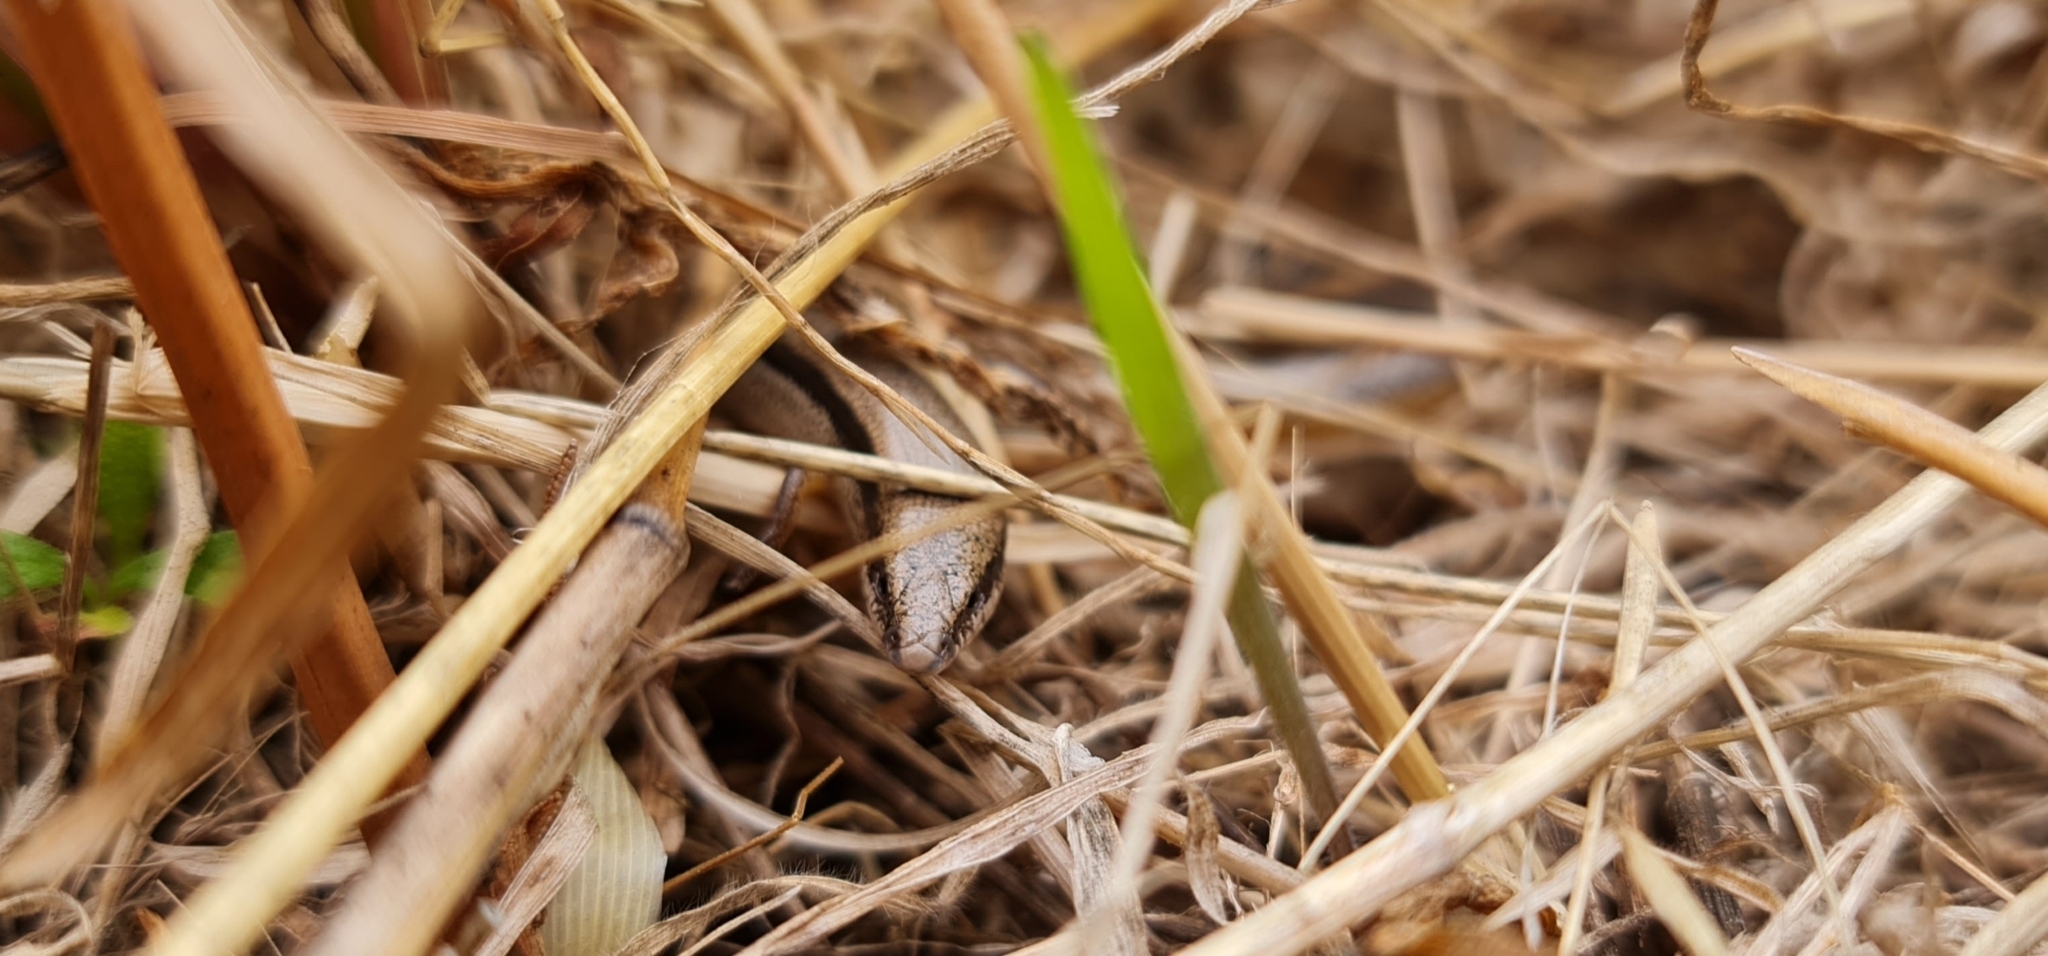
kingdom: Animalia
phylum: Chordata
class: Squamata
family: Scincidae
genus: Lerista
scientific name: Lerista bougainvillii
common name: South-eastern slider
